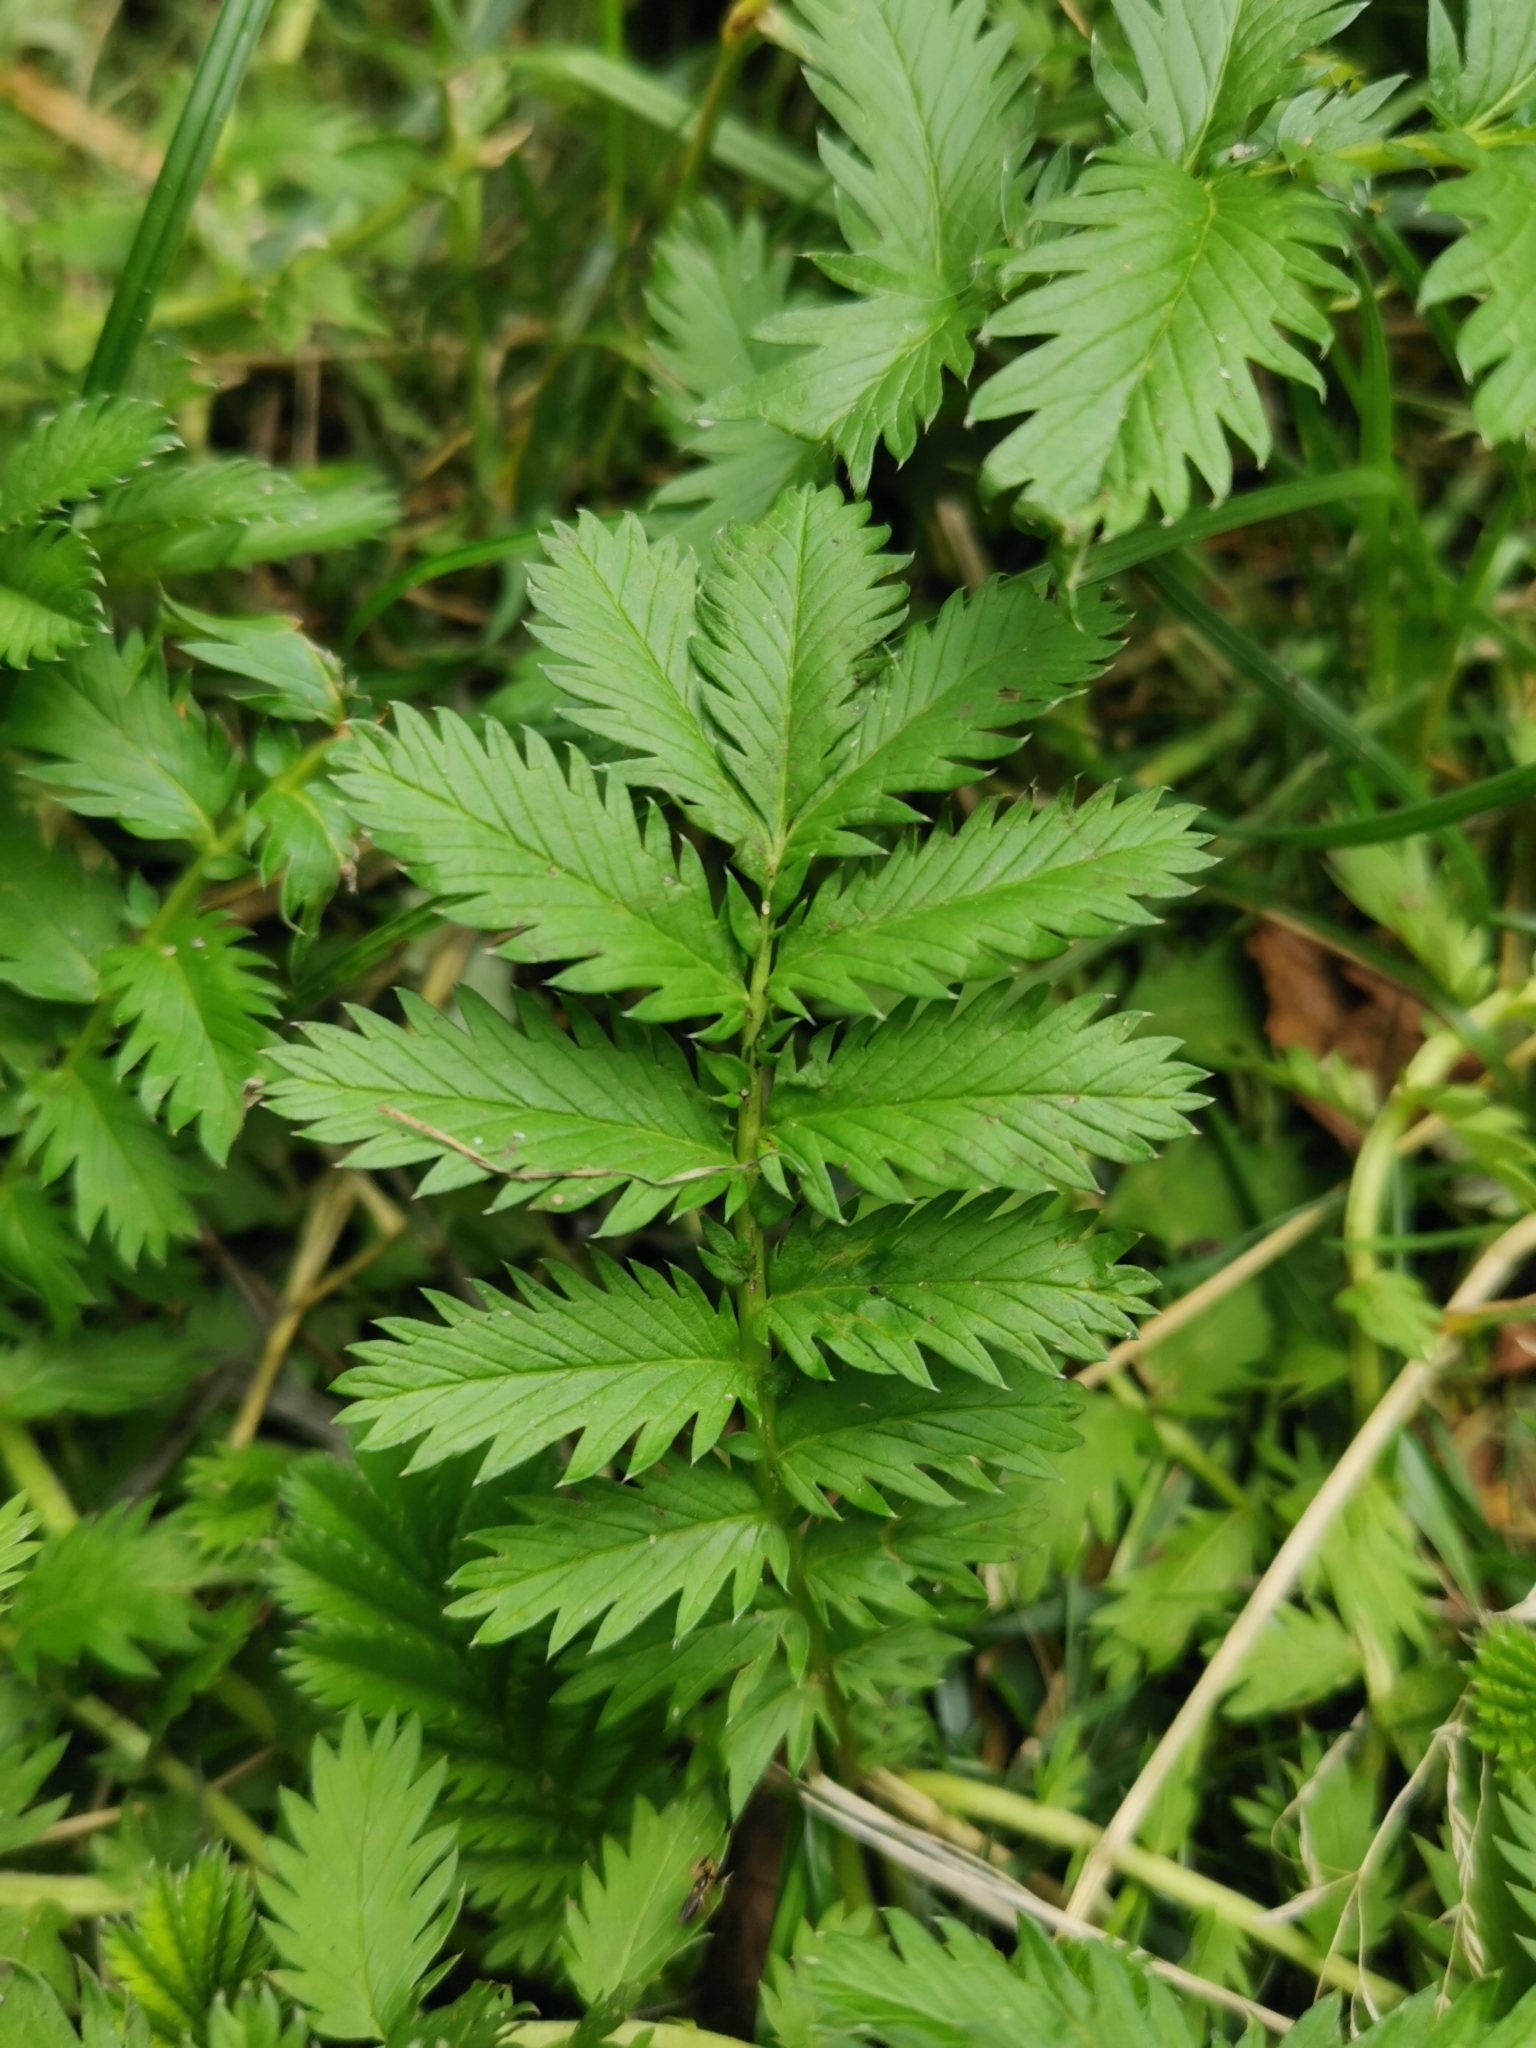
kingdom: Plantae
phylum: Tracheophyta
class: Magnoliopsida
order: Rosales
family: Rosaceae
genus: Argentina
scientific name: Argentina anserina
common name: Common silverweed
